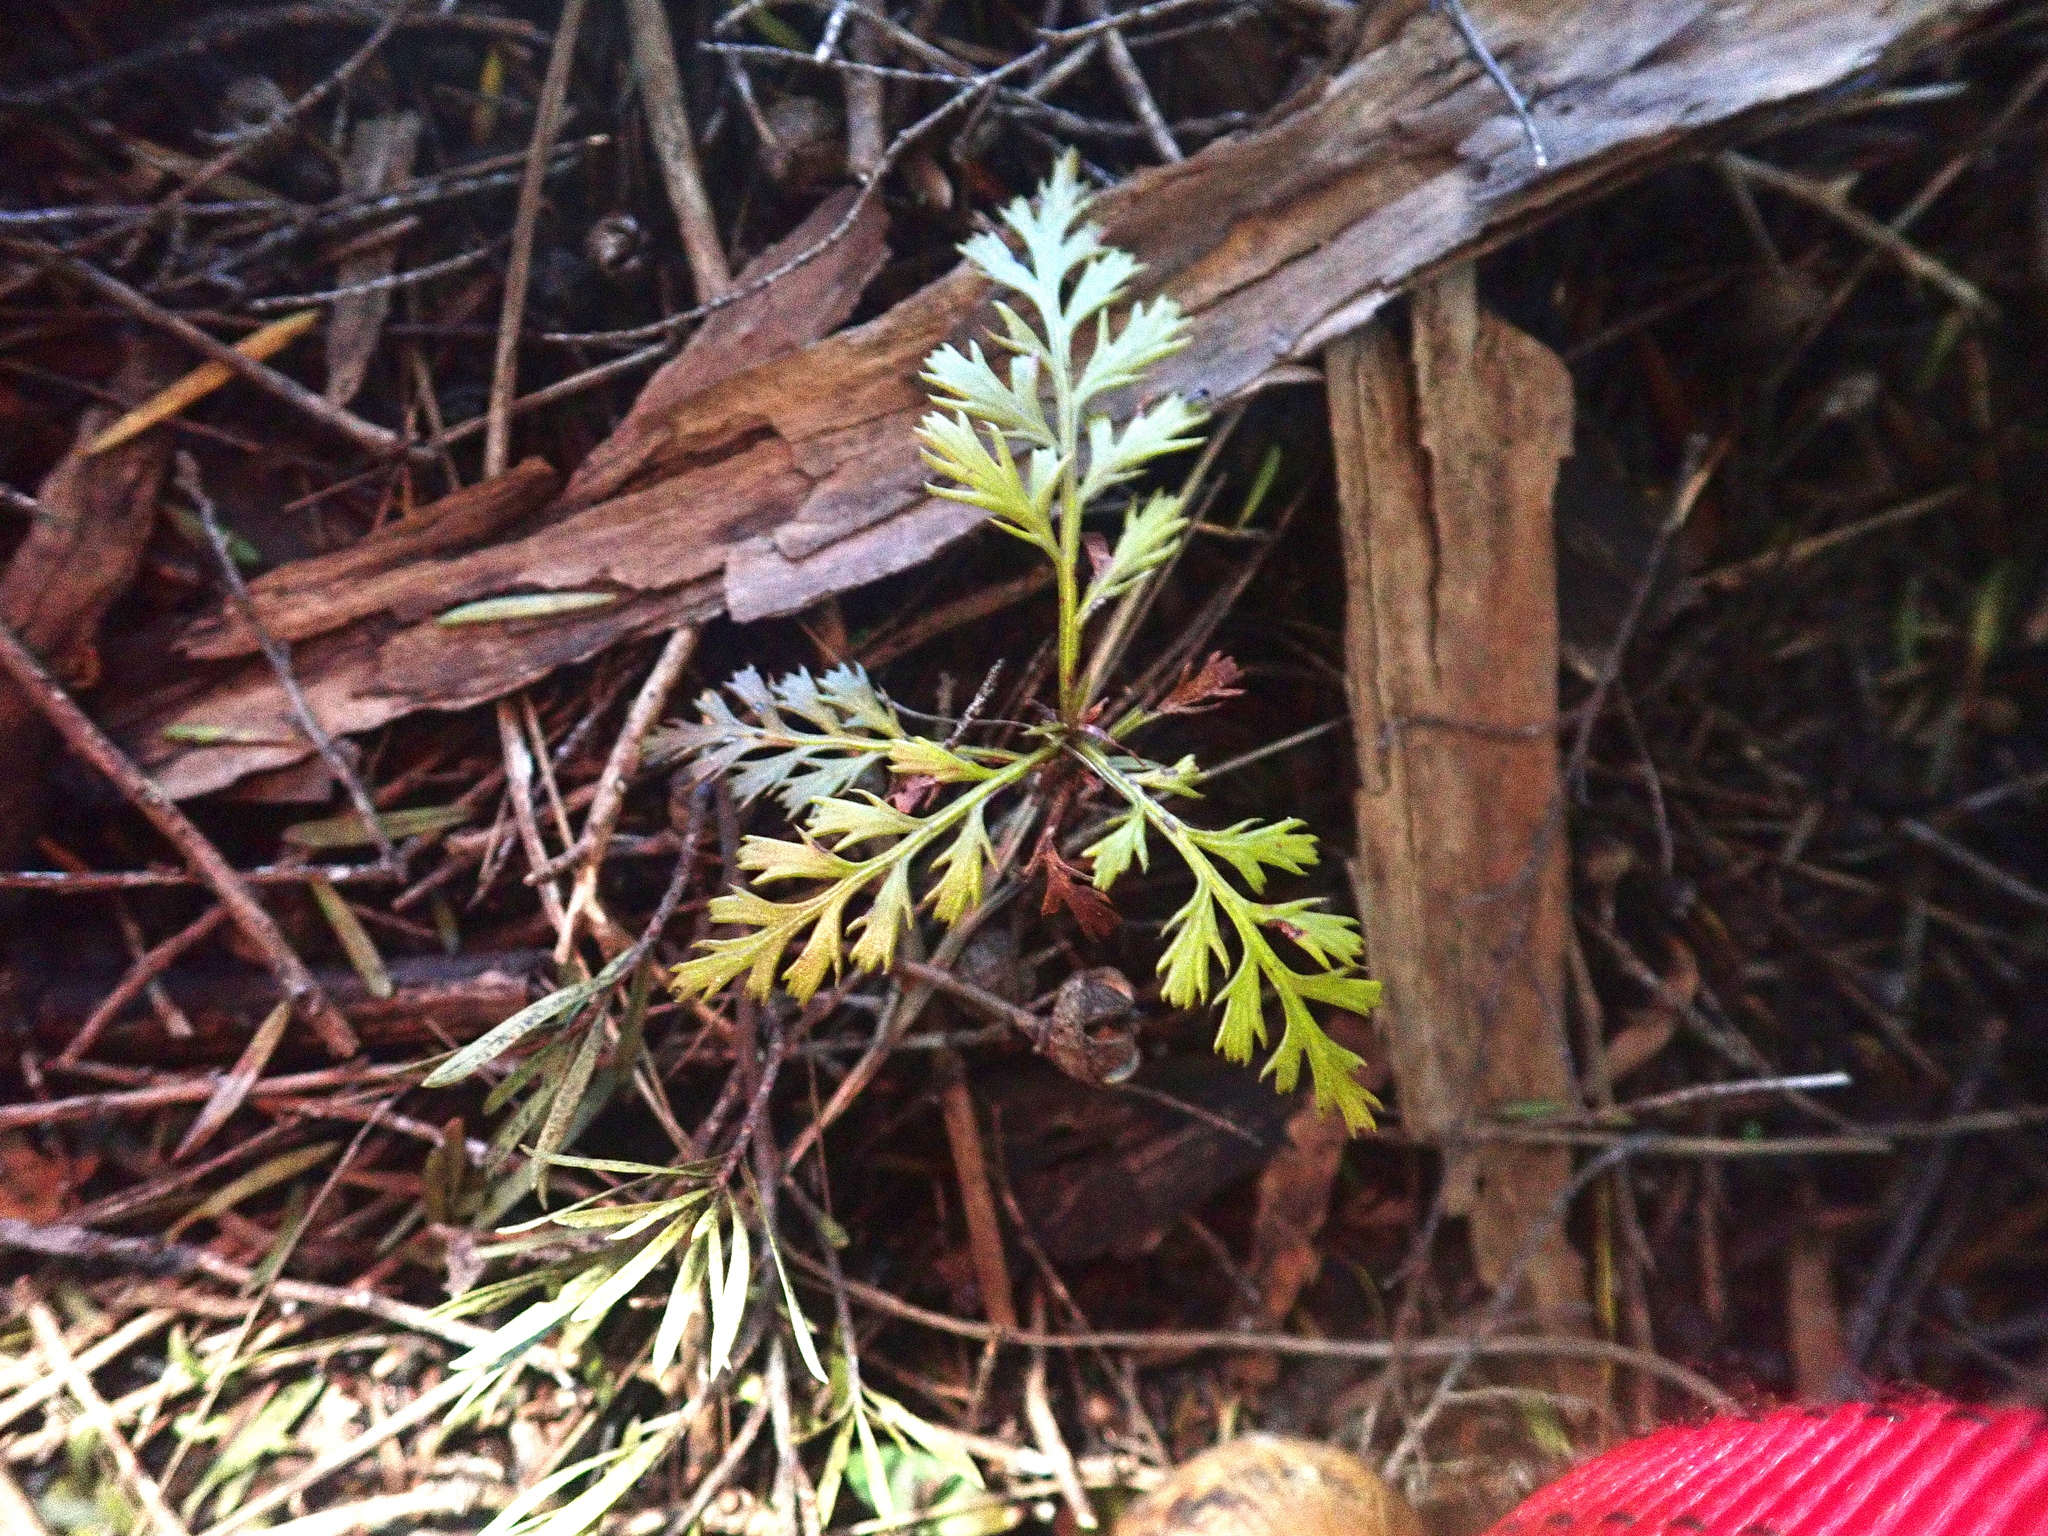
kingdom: Plantae
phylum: Tracheophyta
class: Pinopsida
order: Pinales
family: Phyllocladaceae
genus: Phyllocladus
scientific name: Phyllocladus trichomanoides
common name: Celery pine
